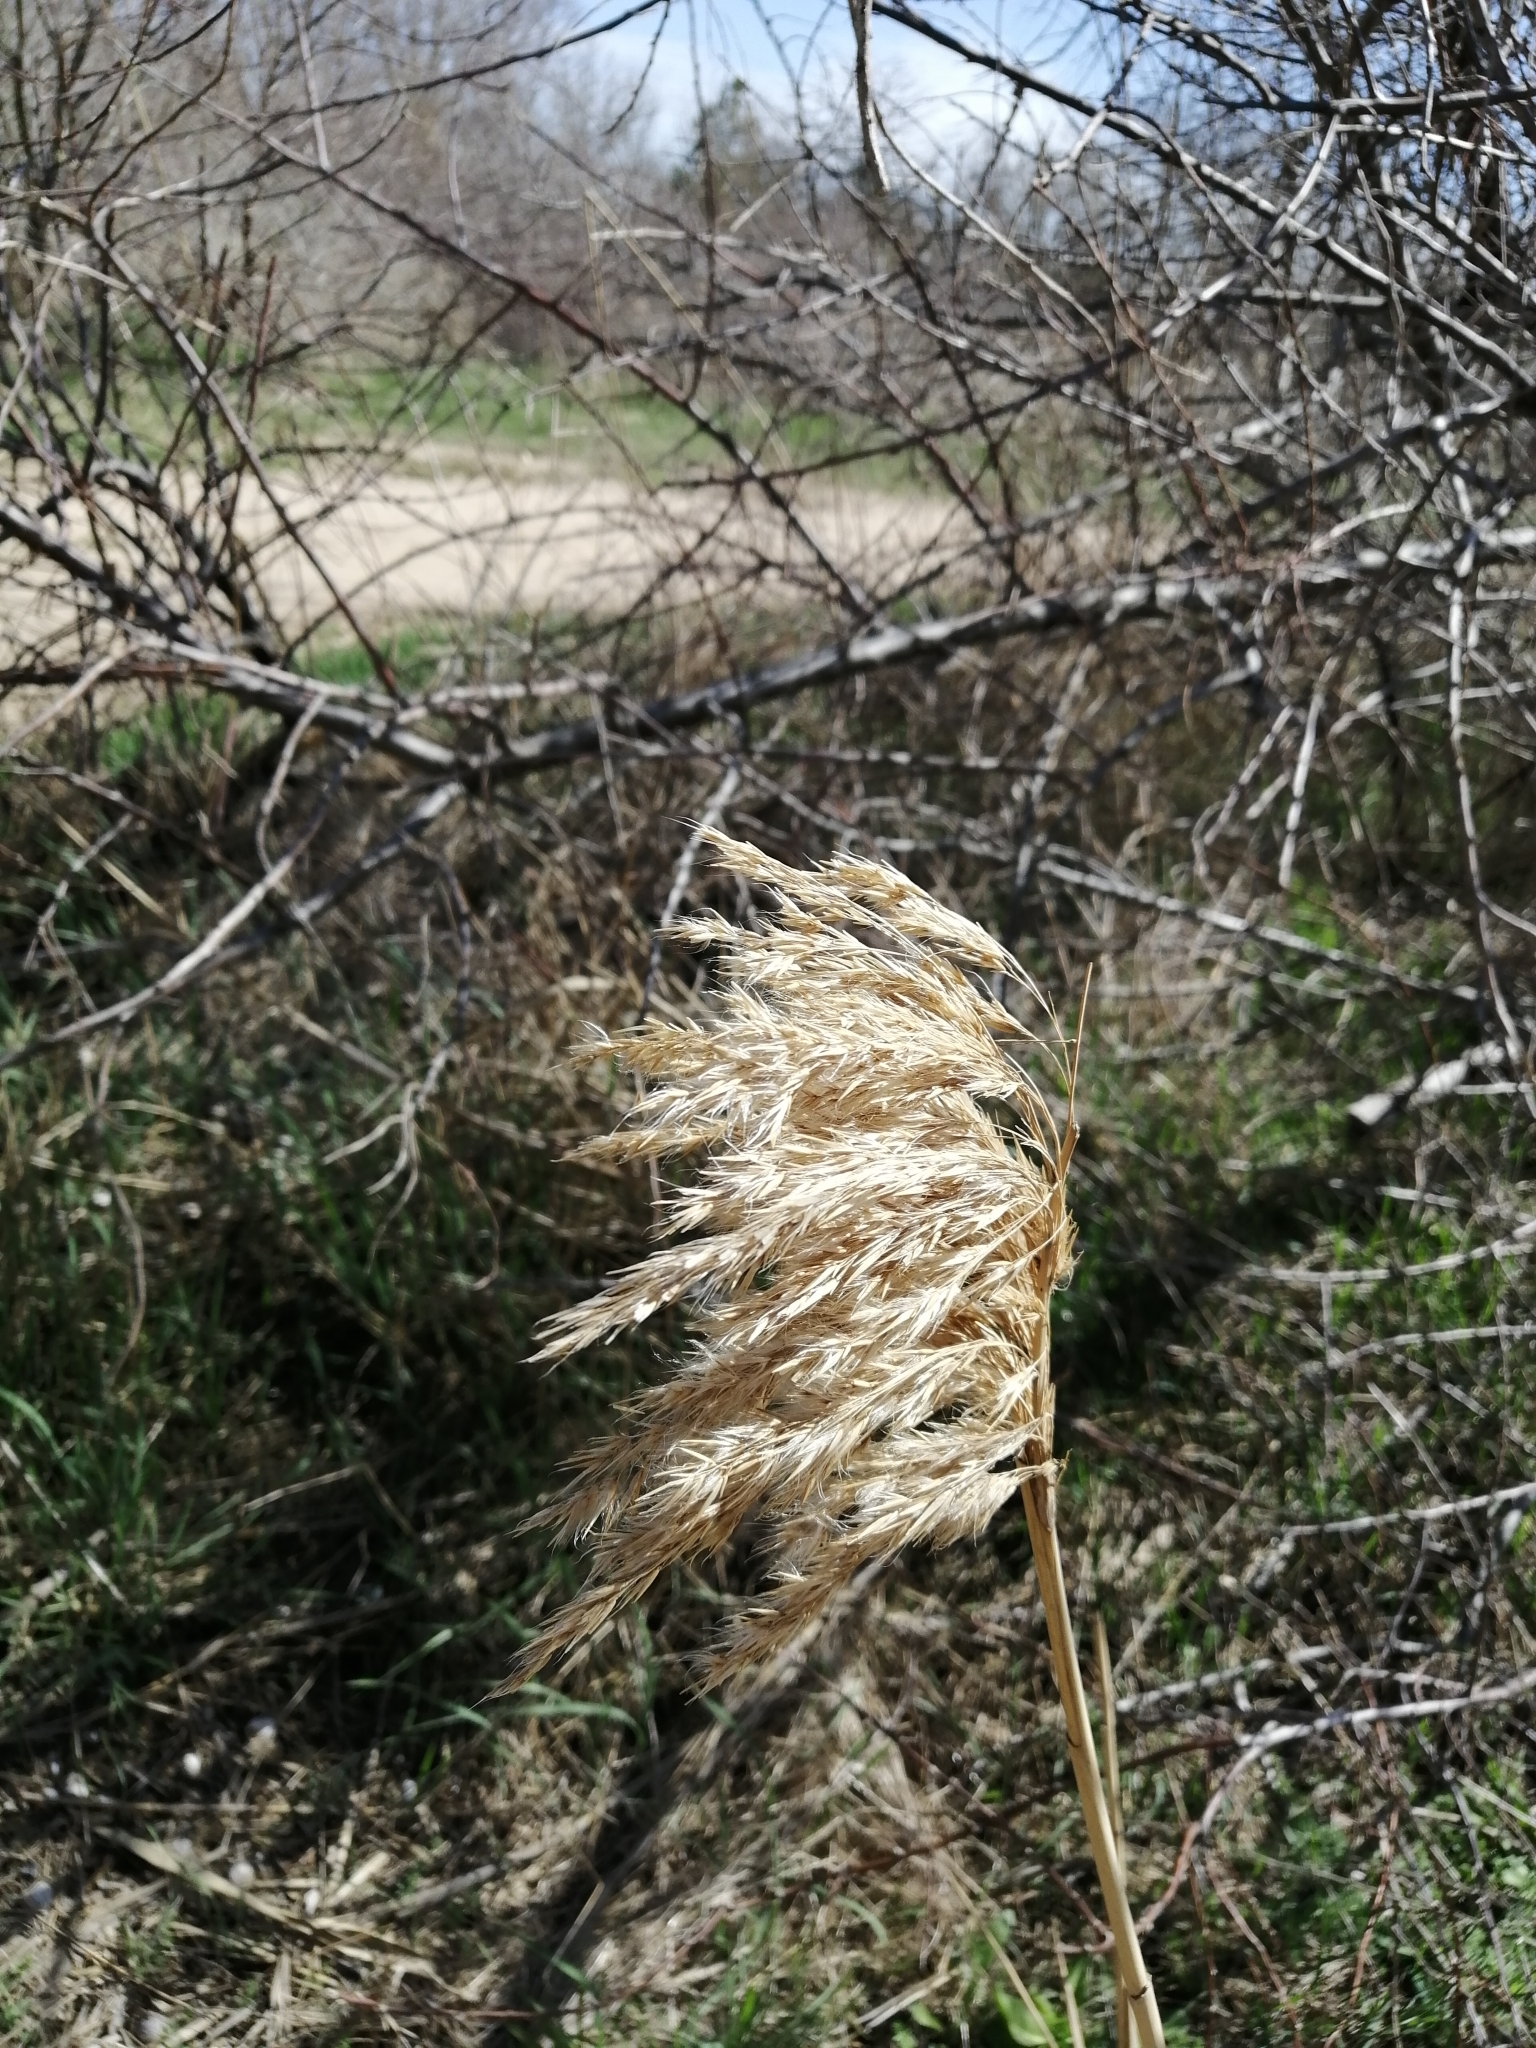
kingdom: Plantae
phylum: Tracheophyta
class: Liliopsida
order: Poales
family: Poaceae
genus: Phragmites
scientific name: Phragmites australis
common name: Common reed
